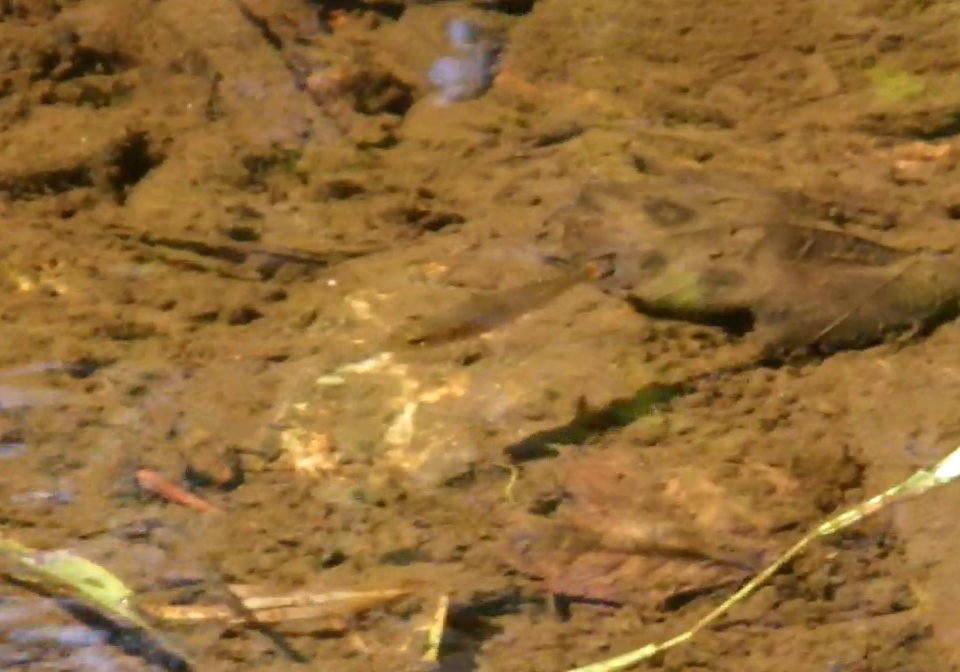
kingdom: Animalia
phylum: Chordata
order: Perciformes
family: Centrarchidae
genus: Micropterus
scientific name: Micropterus dolomieu
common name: Smallmouth bass
